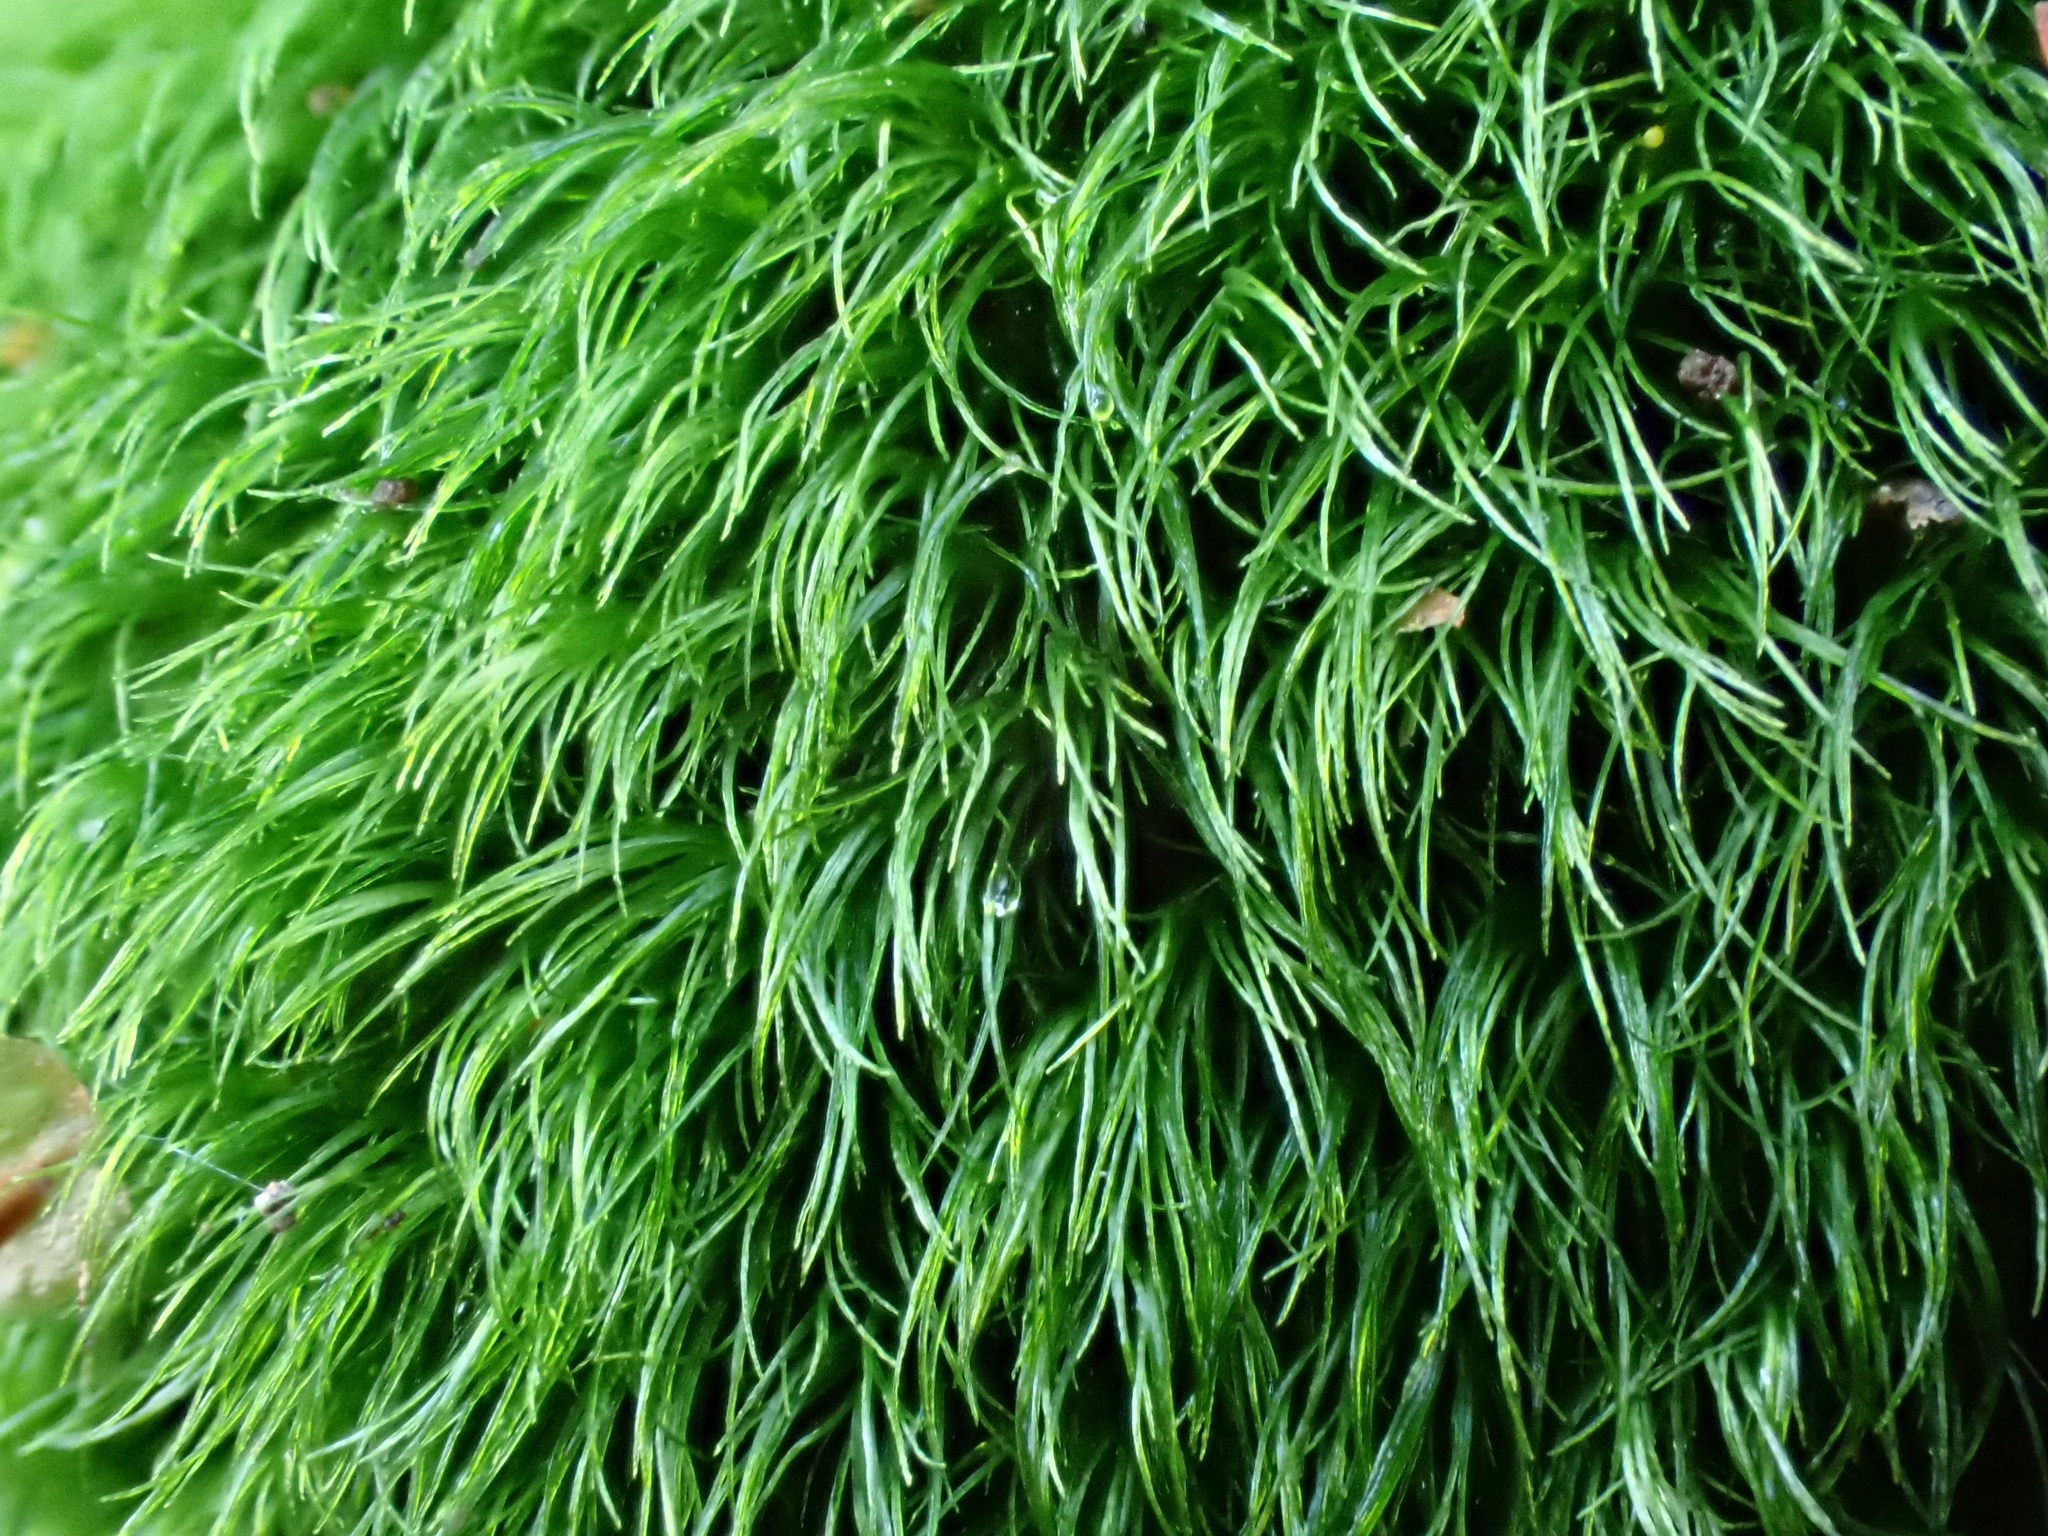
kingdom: Plantae
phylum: Bryophyta
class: Bryopsida
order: Dicranales
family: Dicranellaceae
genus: Dicranella
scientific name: Dicranella heteromalla
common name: Silky forklet moss
